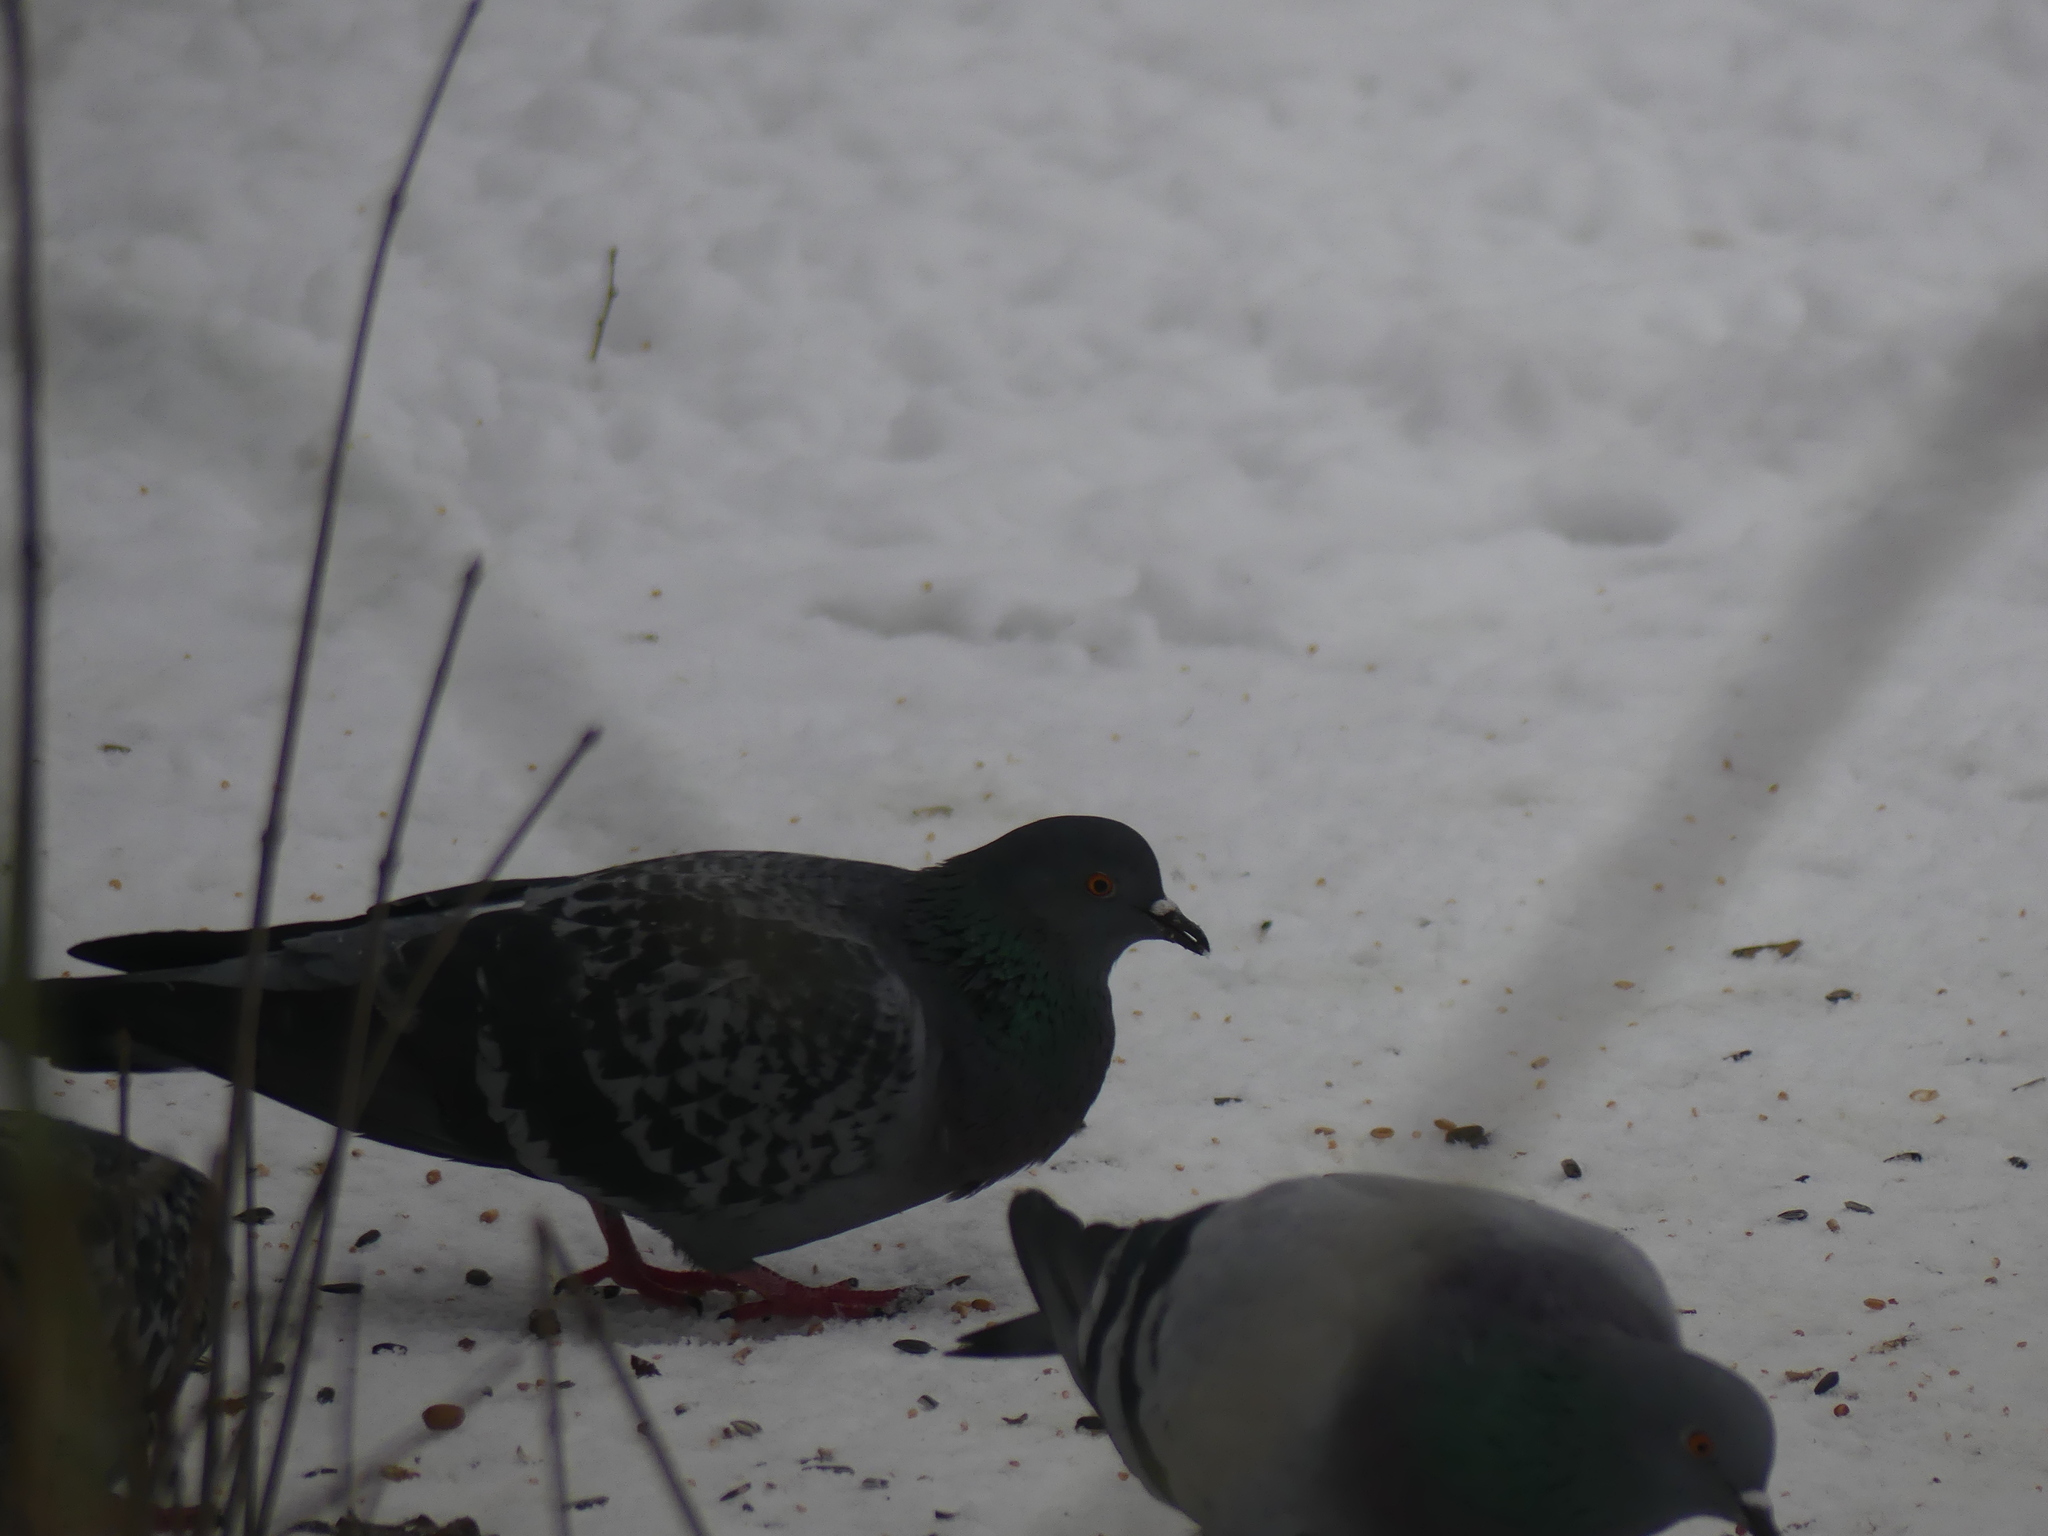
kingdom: Animalia
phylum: Chordata
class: Aves
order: Columbiformes
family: Columbidae
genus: Columba
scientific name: Columba livia
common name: Rock pigeon
